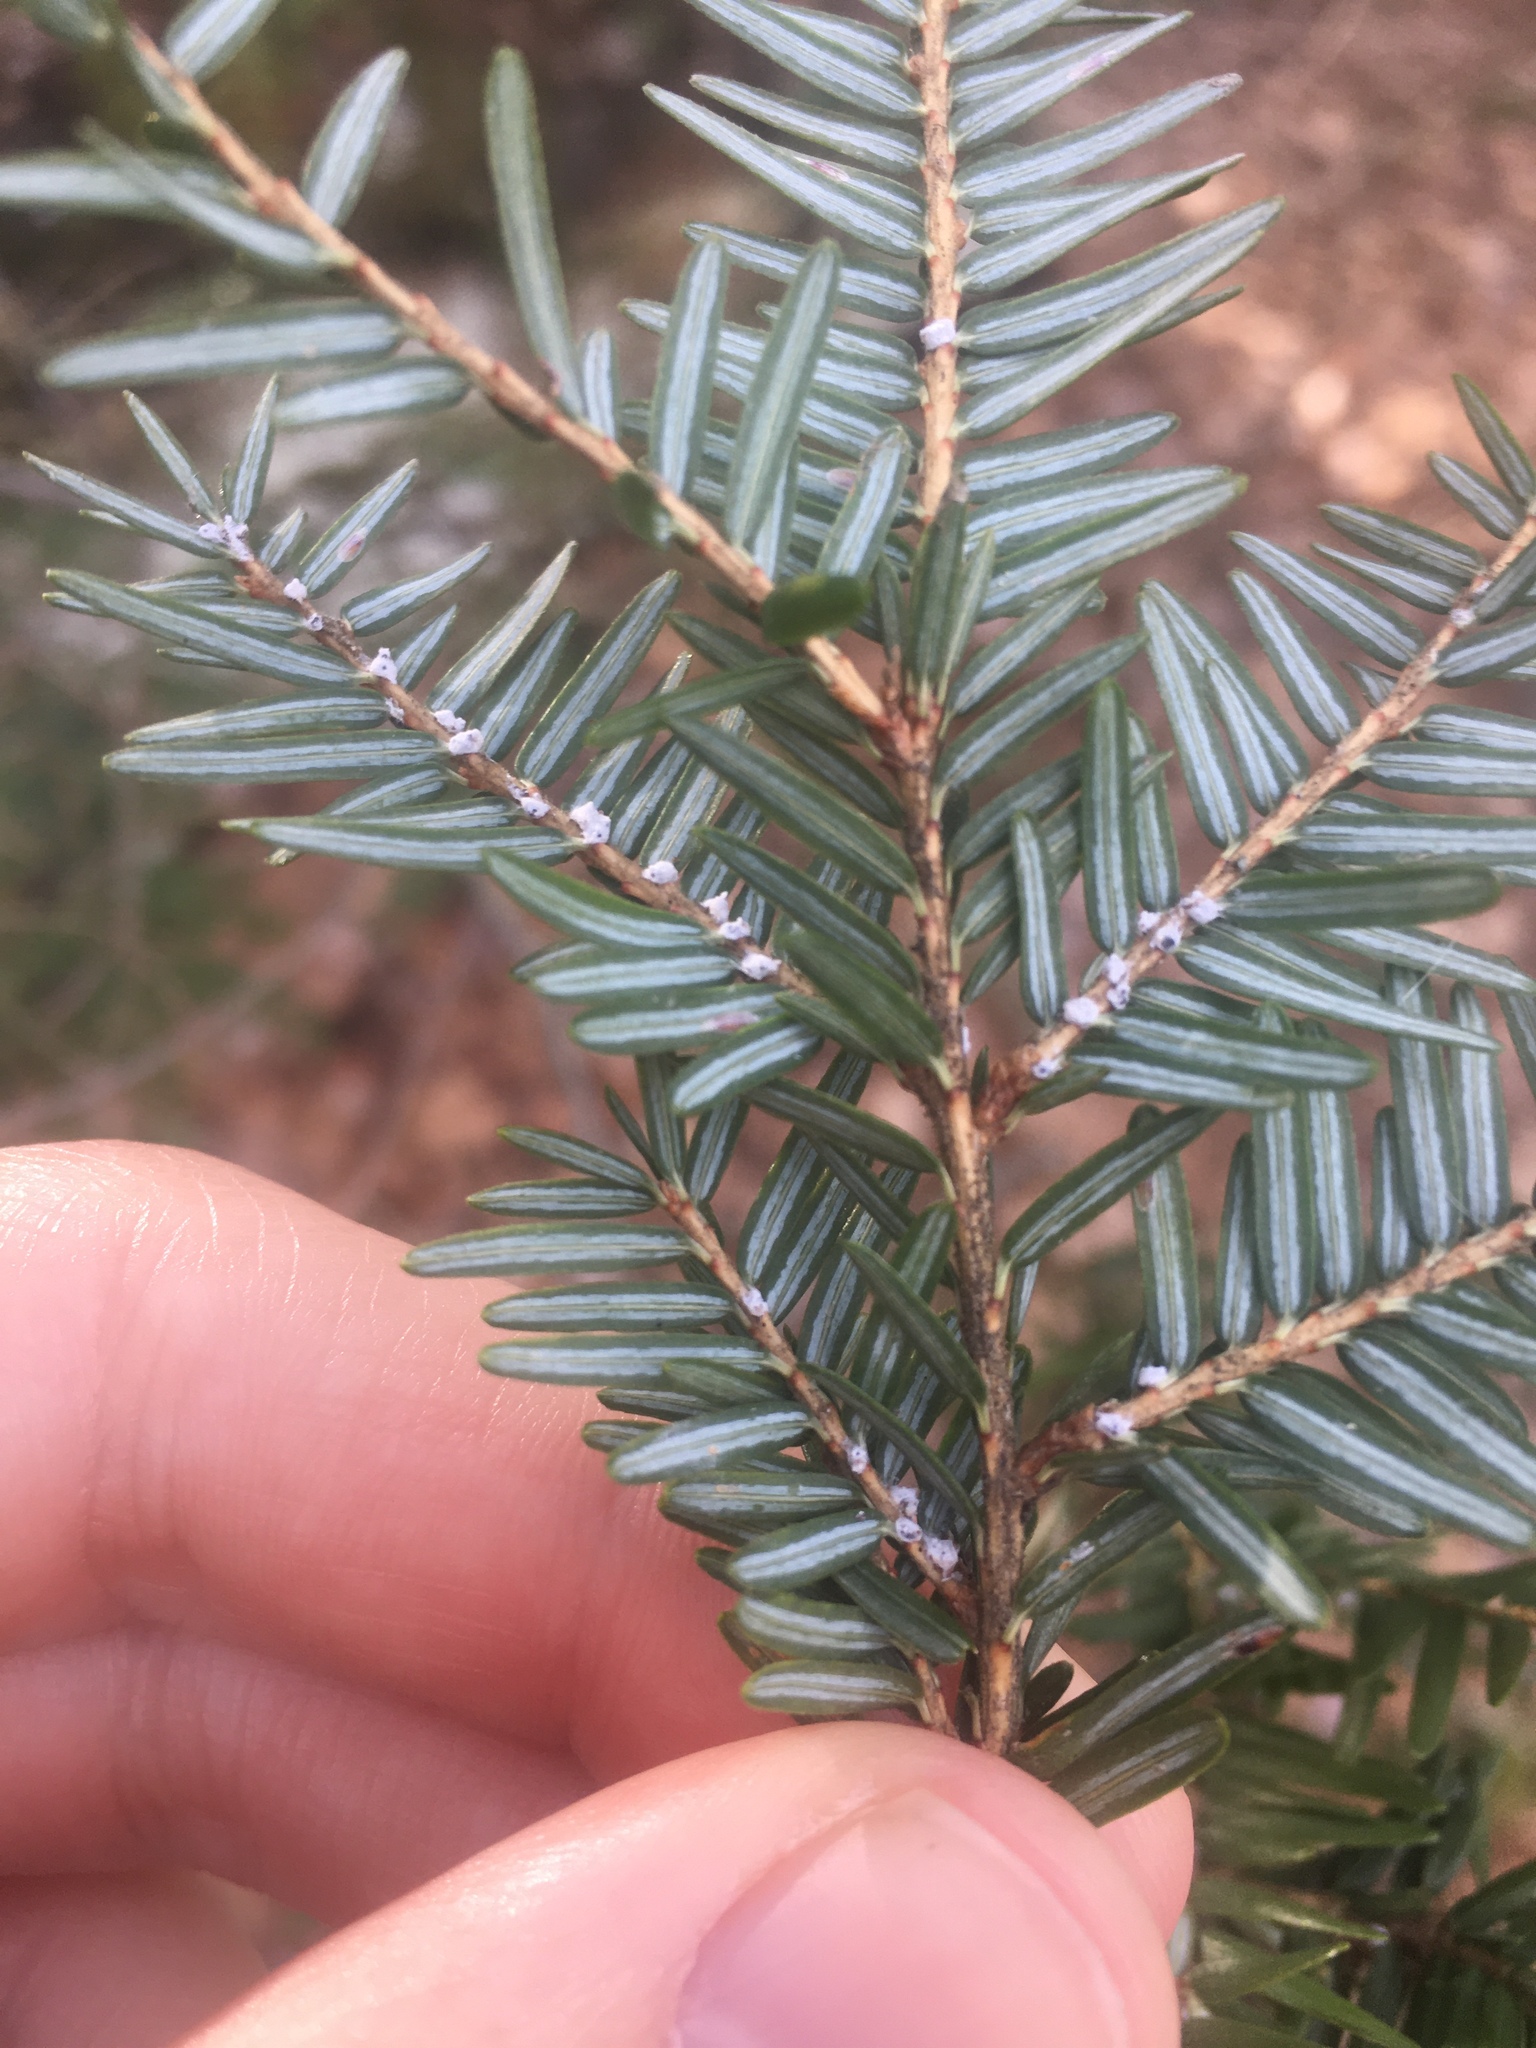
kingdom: Animalia
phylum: Arthropoda
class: Insecta
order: Hemiptera
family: Adelgidae
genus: Adelges
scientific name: Adelges tsugae
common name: Hemlock woolly adelgid
